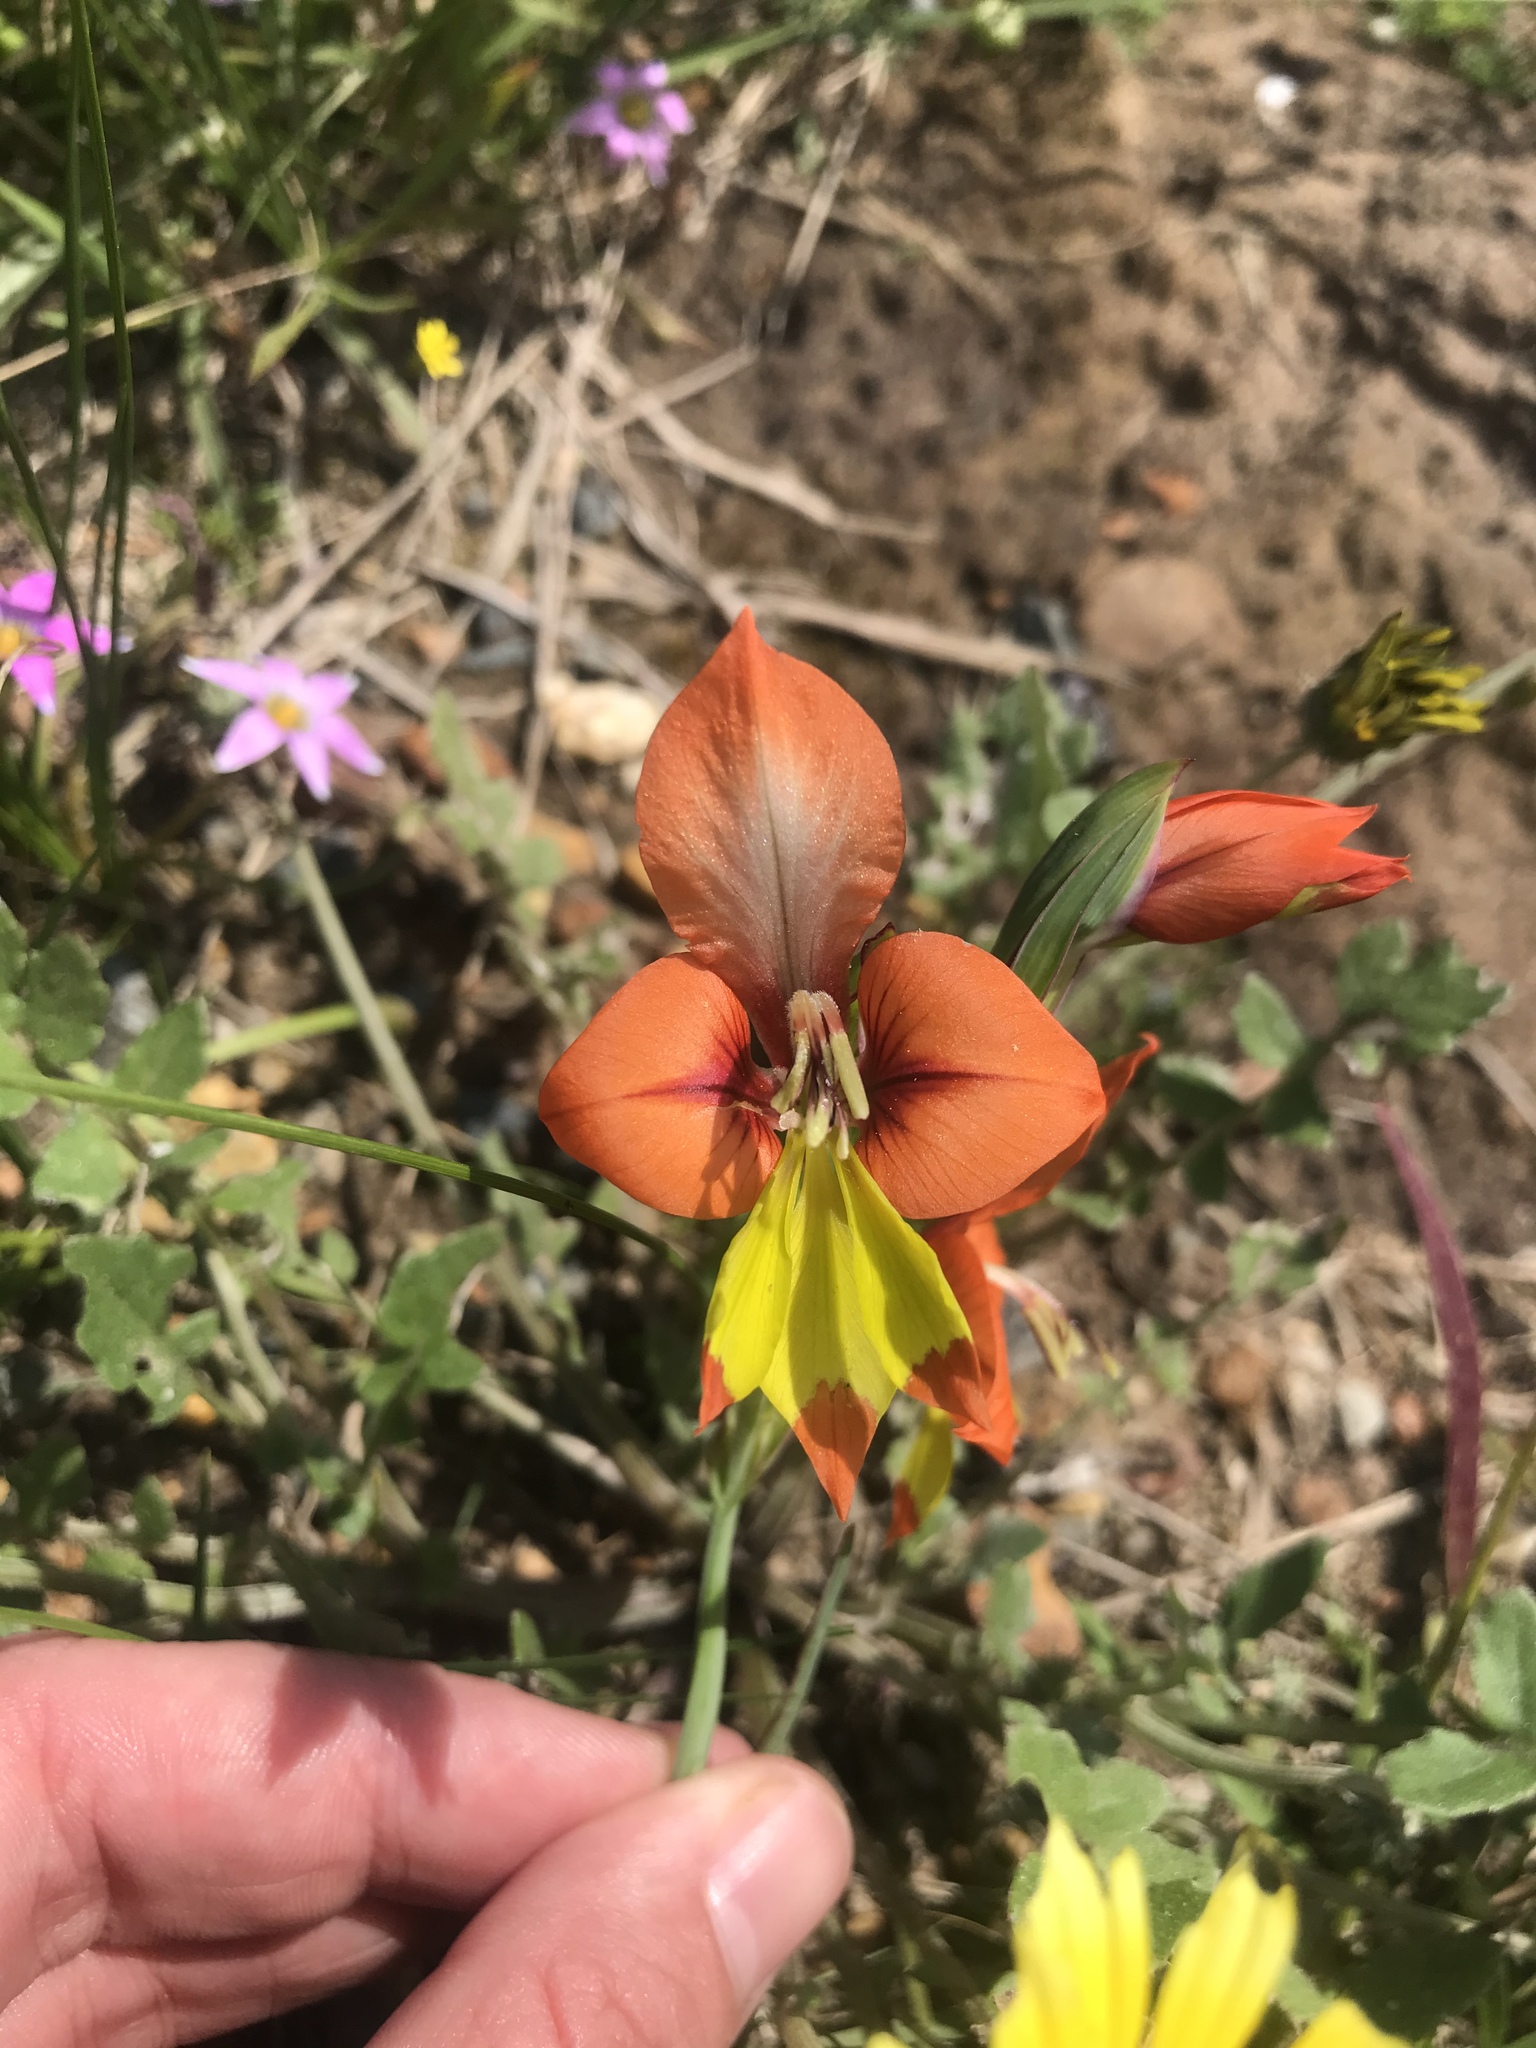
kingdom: Plantae
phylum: Tracheophyta
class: Liliopsida
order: Asparagales
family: Iridaceae
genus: Gladiolus
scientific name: Gladiolus alatus
